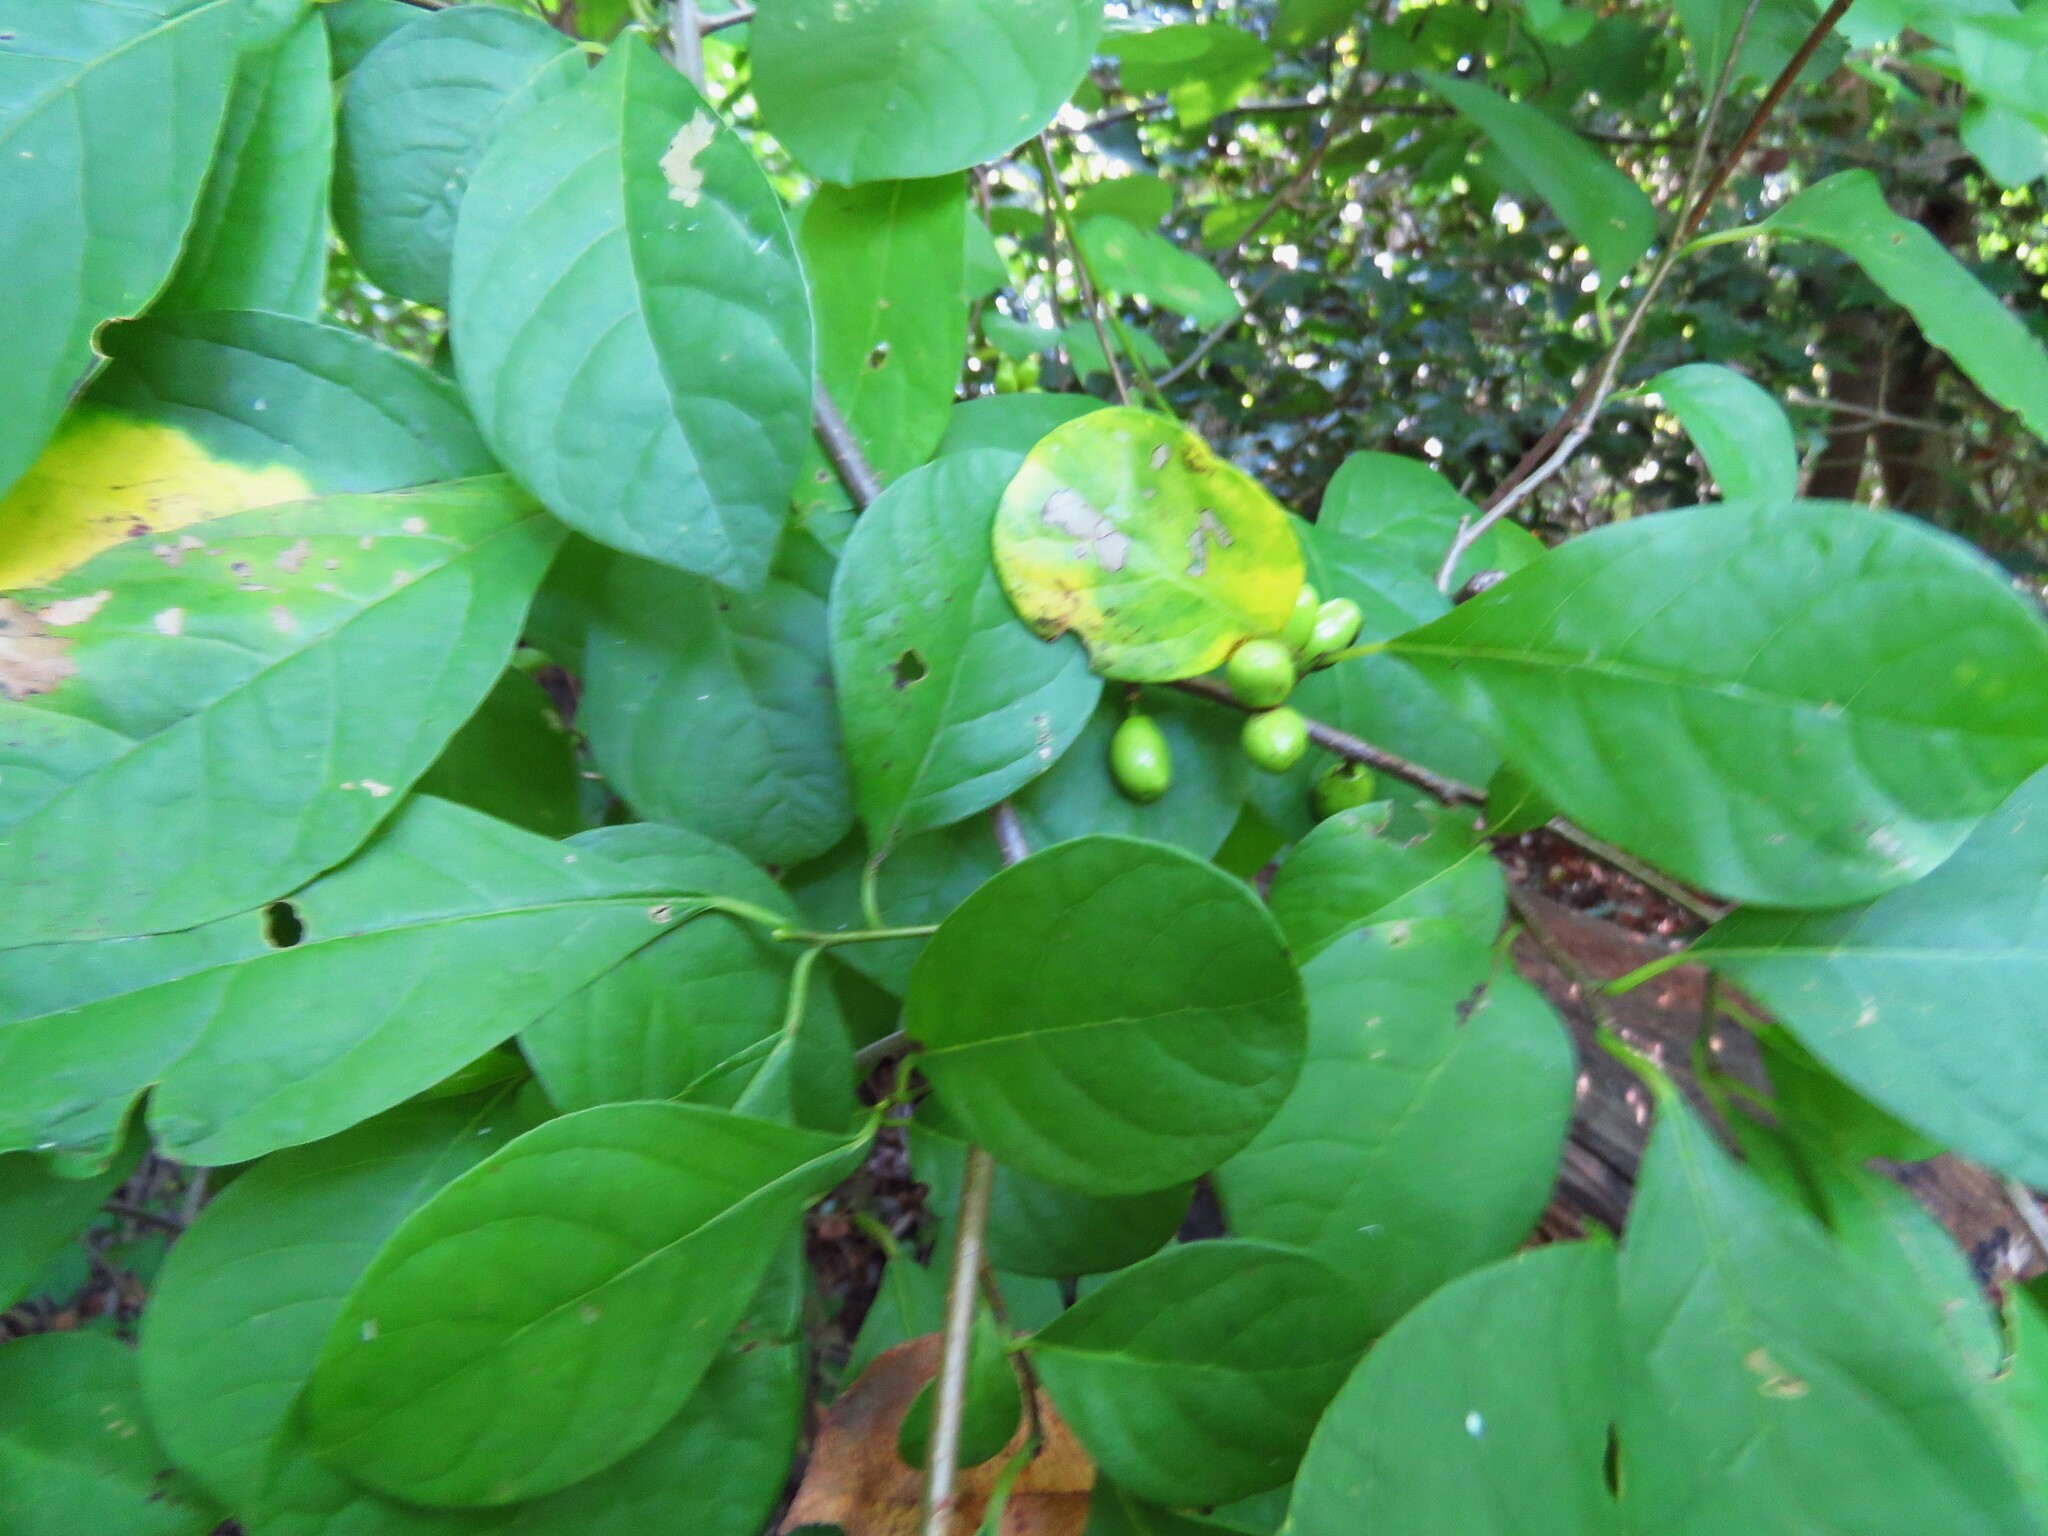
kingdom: Plantae
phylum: Tracheophyta
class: Magnoliopsida
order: Laurales
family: Lauraceae
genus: Lindera
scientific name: Lindera benzoin
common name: Spicebush
